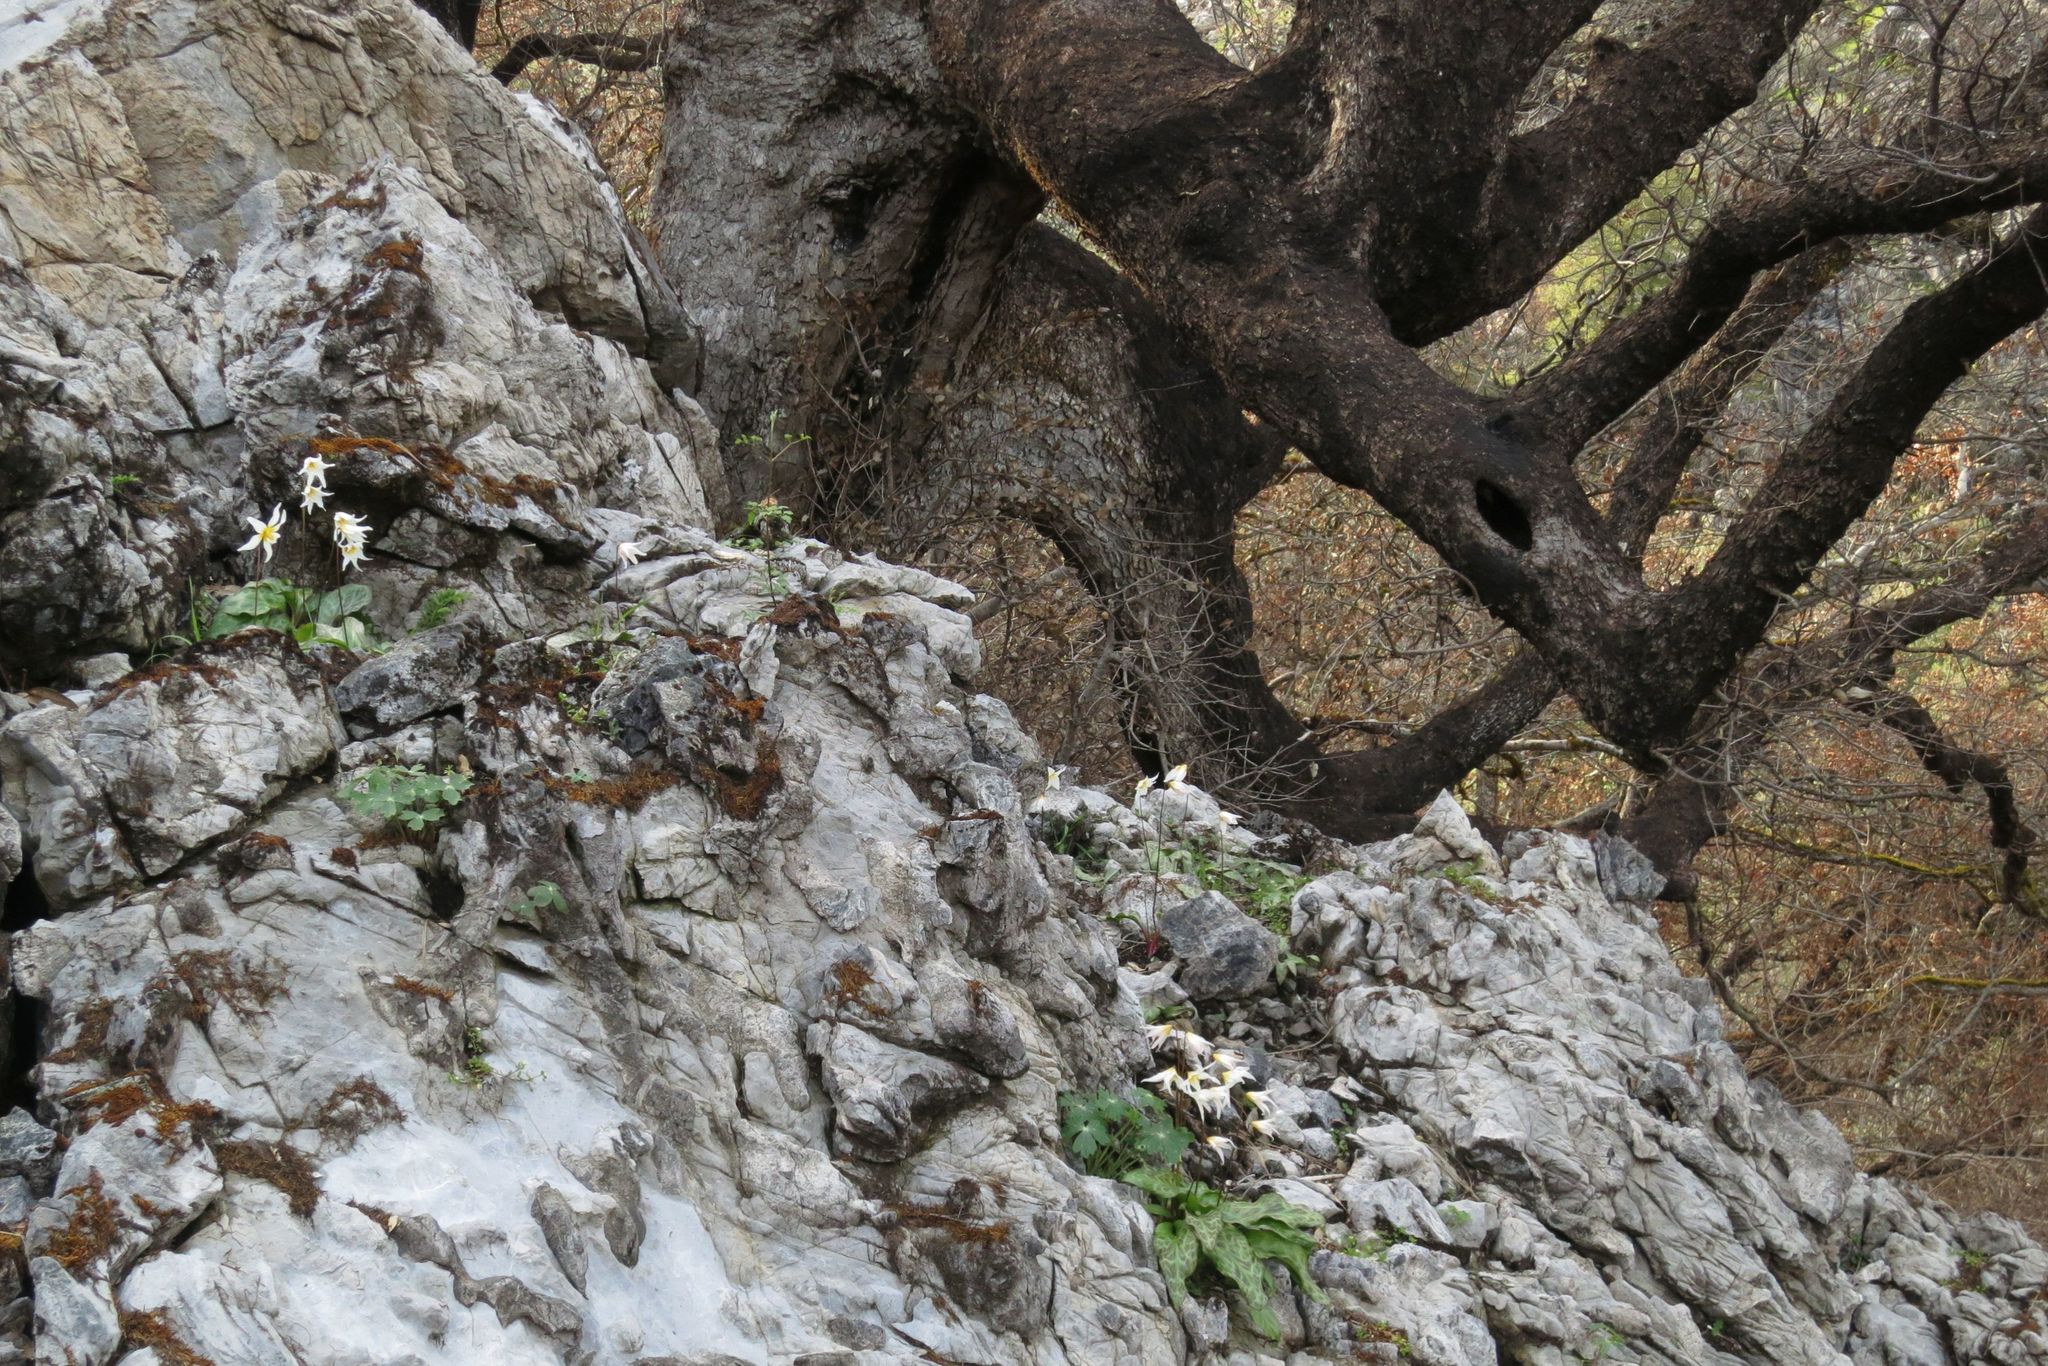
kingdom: Plantae
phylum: Tracheophyta
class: Liliopsida
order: Liliales
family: Liliaceae
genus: Erythronium
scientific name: Erythronium shastense
